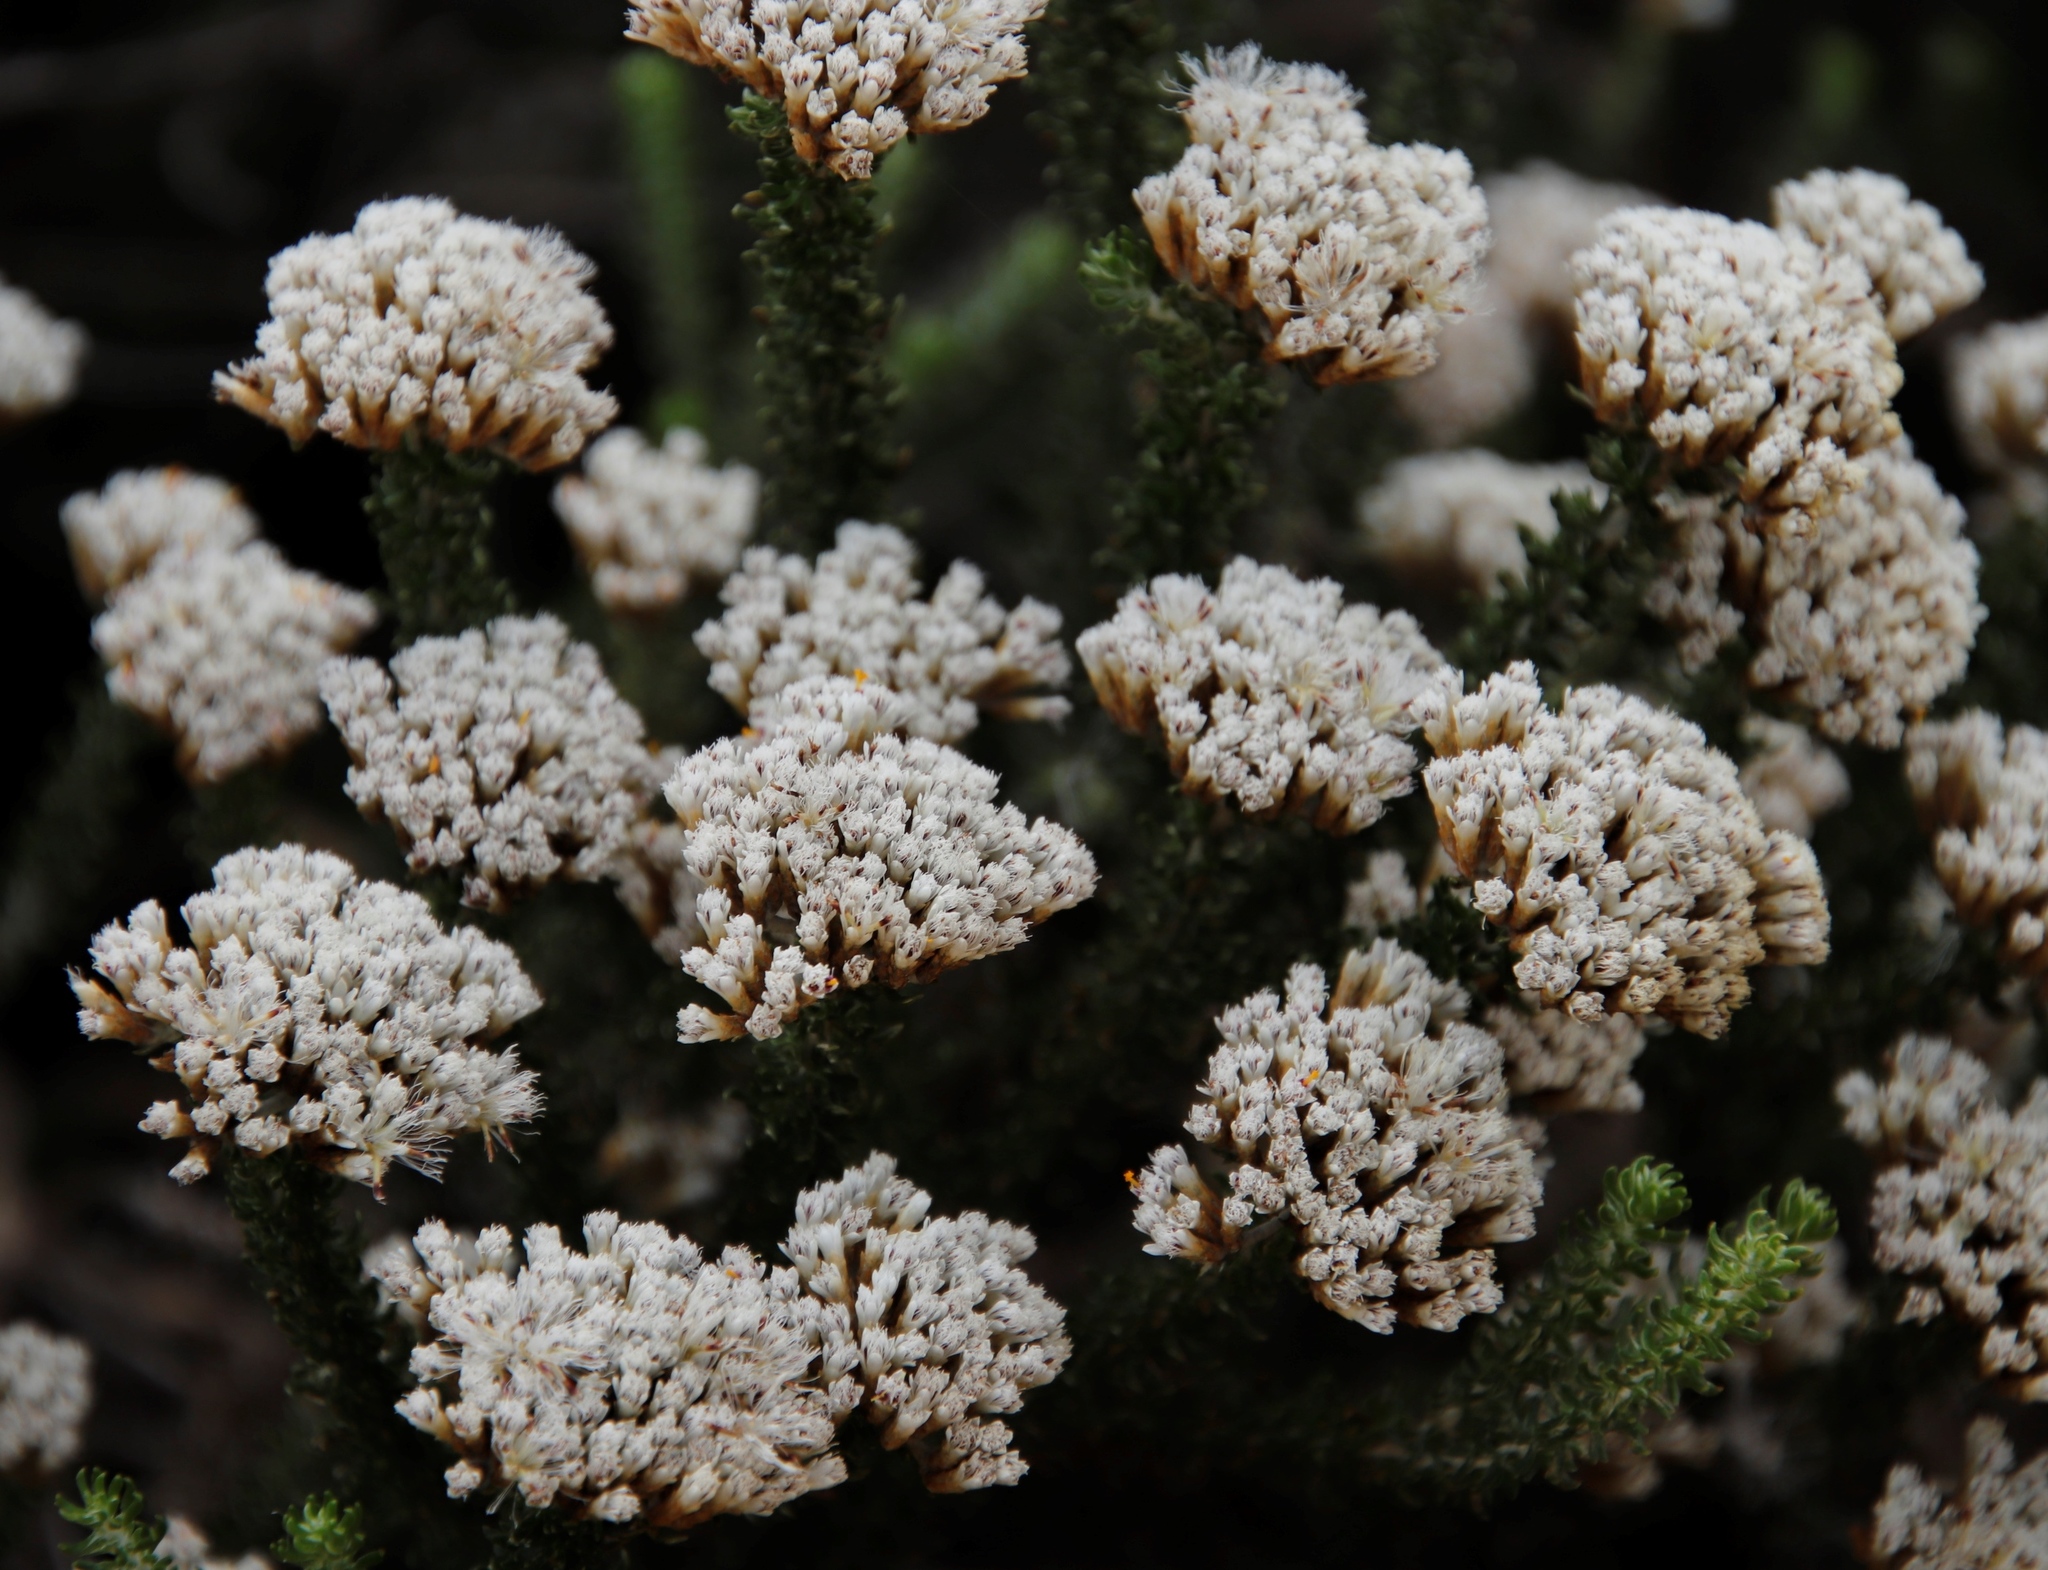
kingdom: Plantae
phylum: Tracheophyta
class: Magnoliopsida
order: Asterales
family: Asteraceae
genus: Metalasia
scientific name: Metalasia muricata
